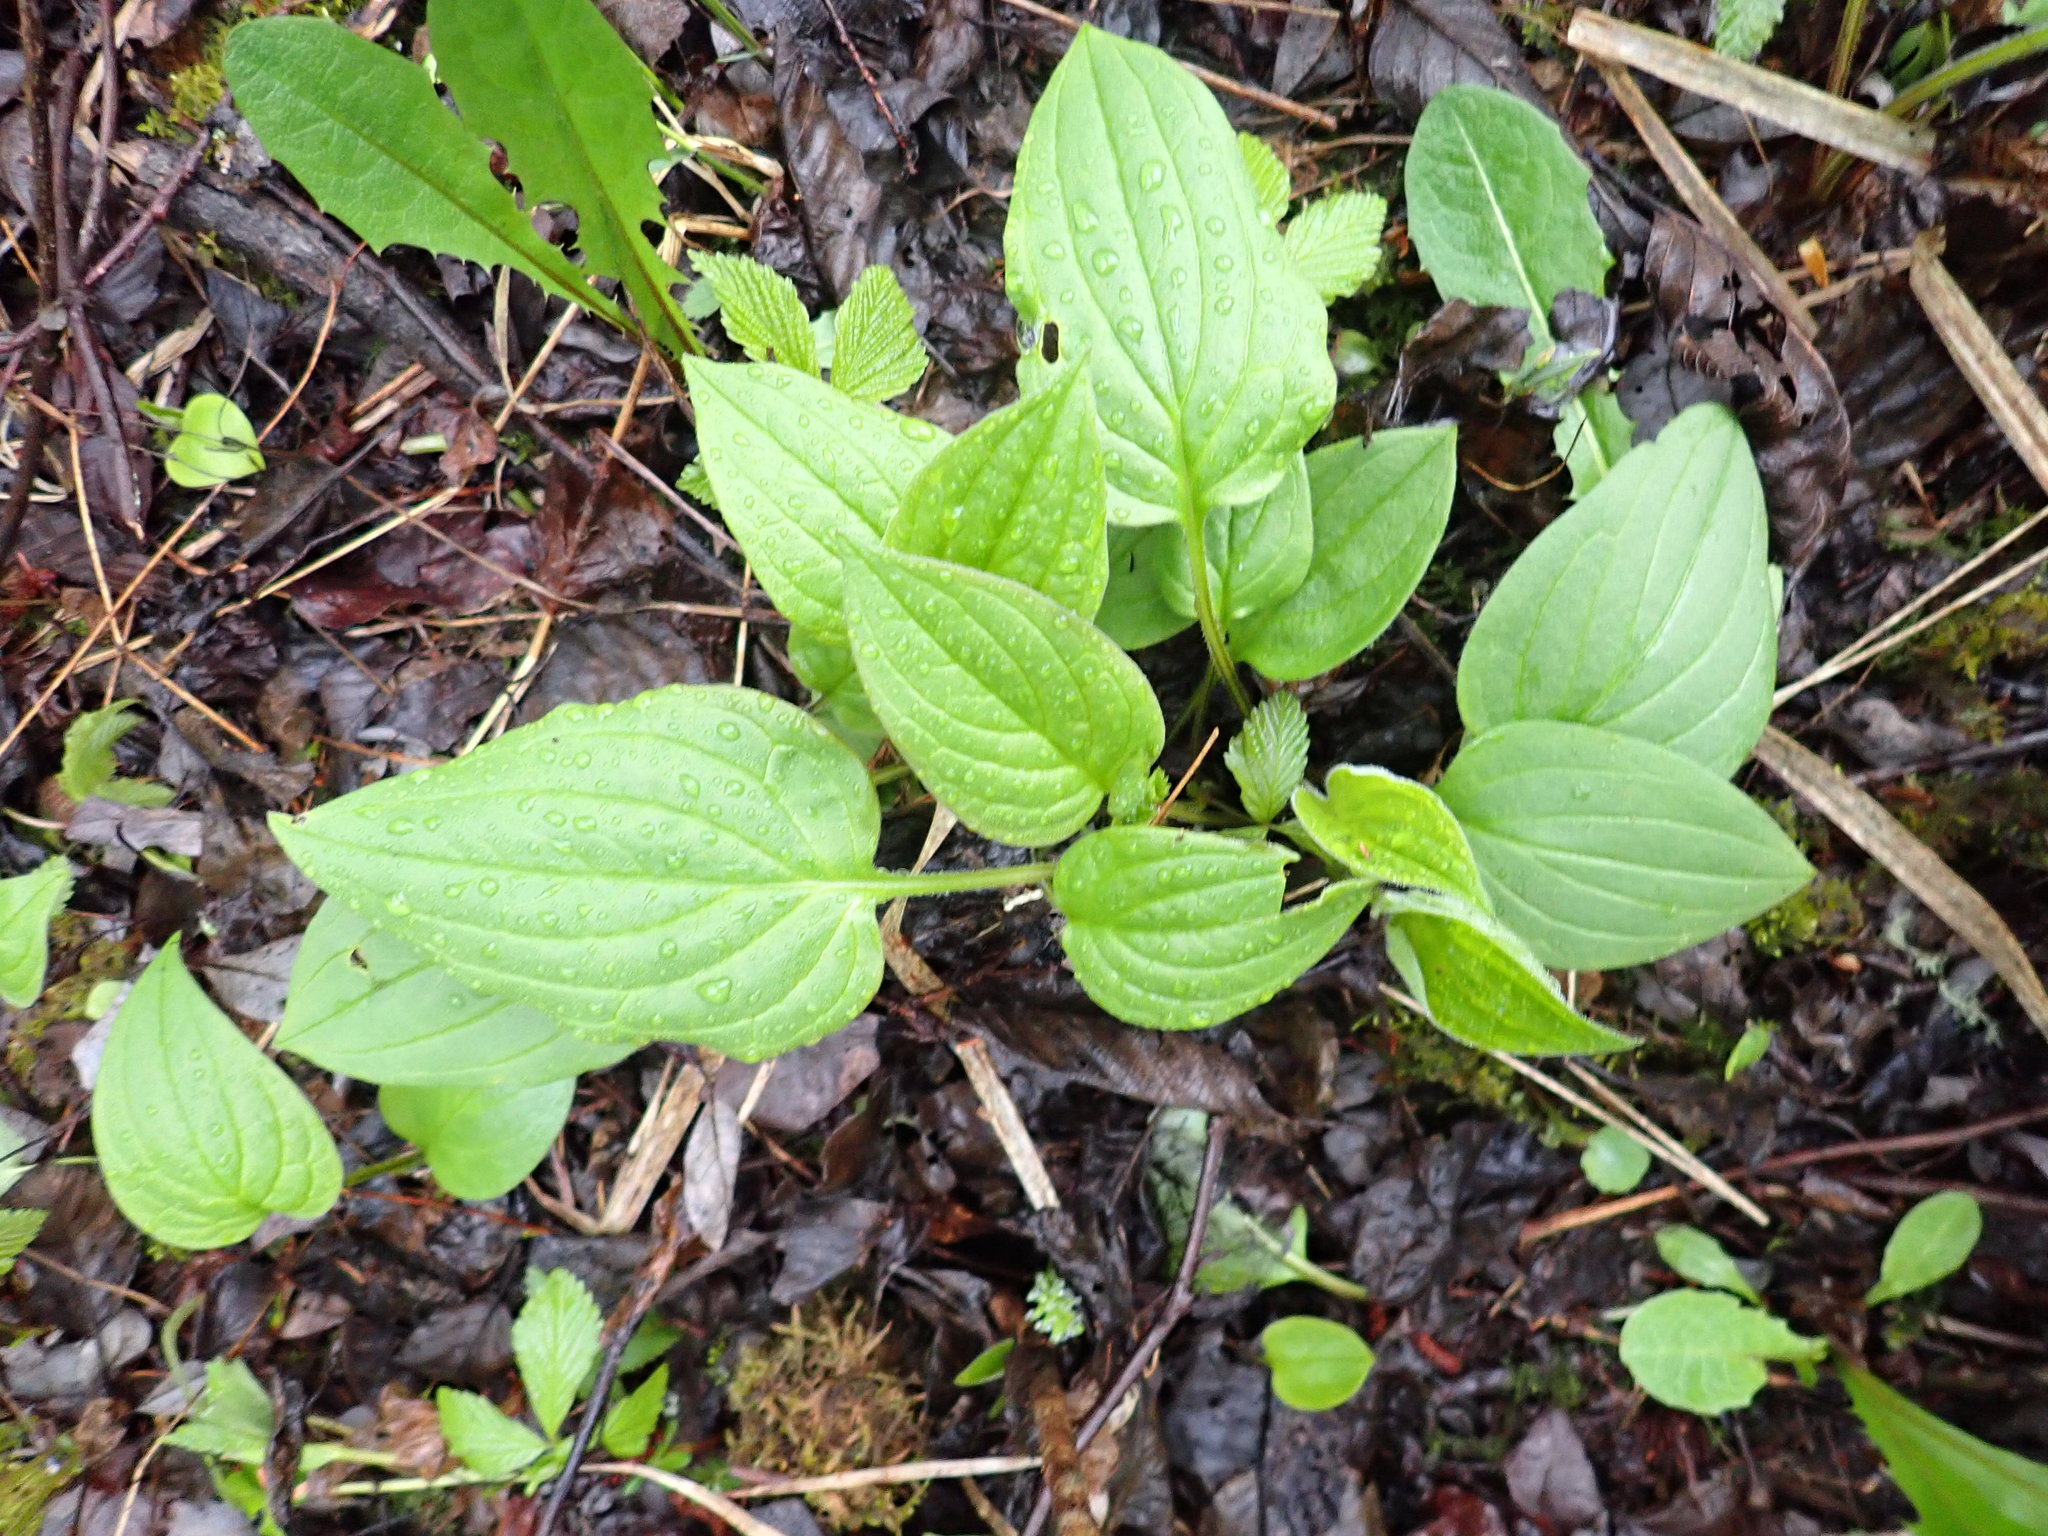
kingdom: Plantae
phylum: Tracheophyta
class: Magnoliopsida
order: Boraginales
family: Boraginaceae
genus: Mertensia
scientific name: Mertensia paniculata
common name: Panicled bluebells
